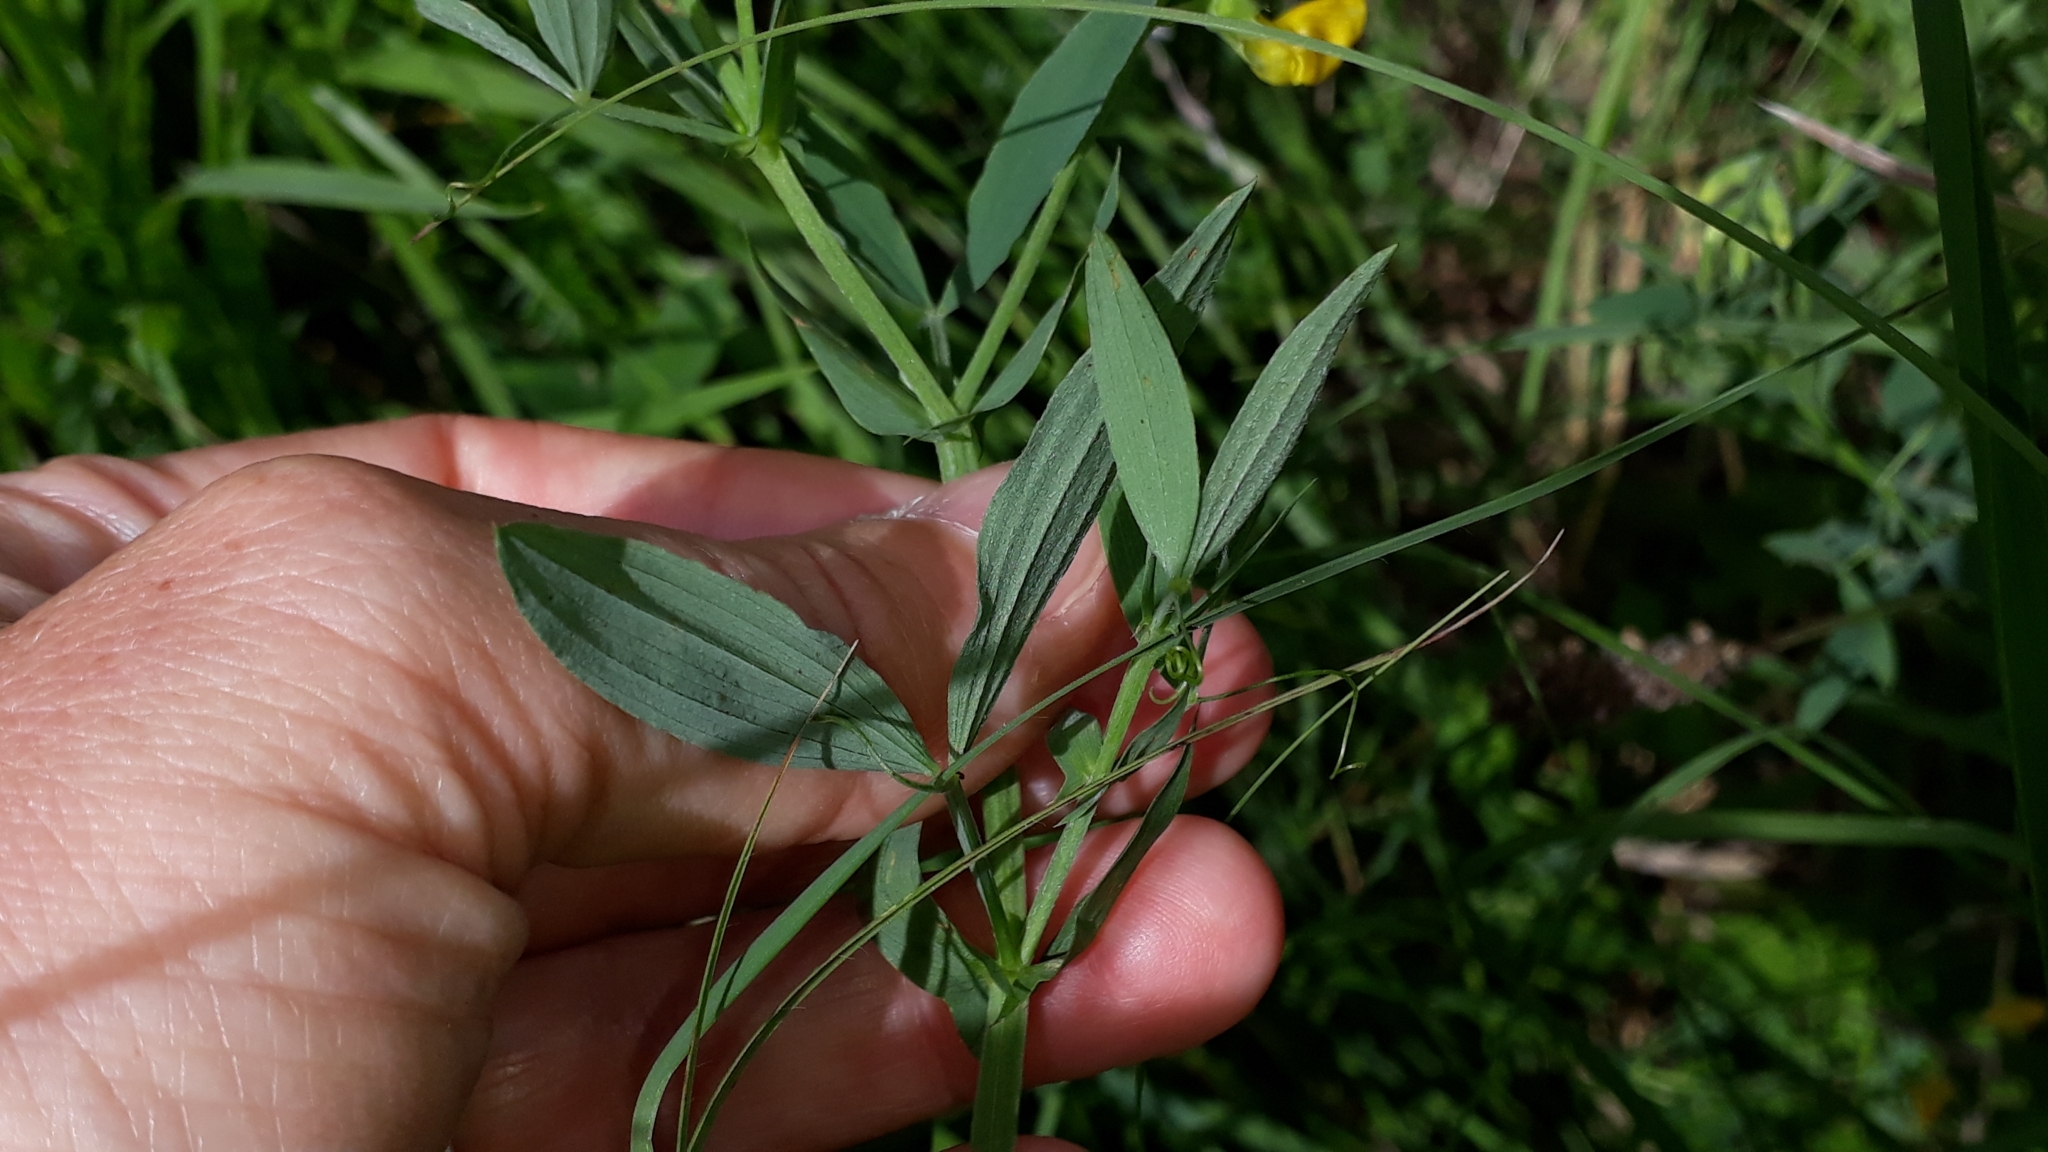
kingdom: Plantae
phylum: Tracheophyta
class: Magnoliopsida
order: Fabales
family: Fabaceae
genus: Lathyrus
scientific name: Lathyrus pratensis
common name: Meadow vetchling
